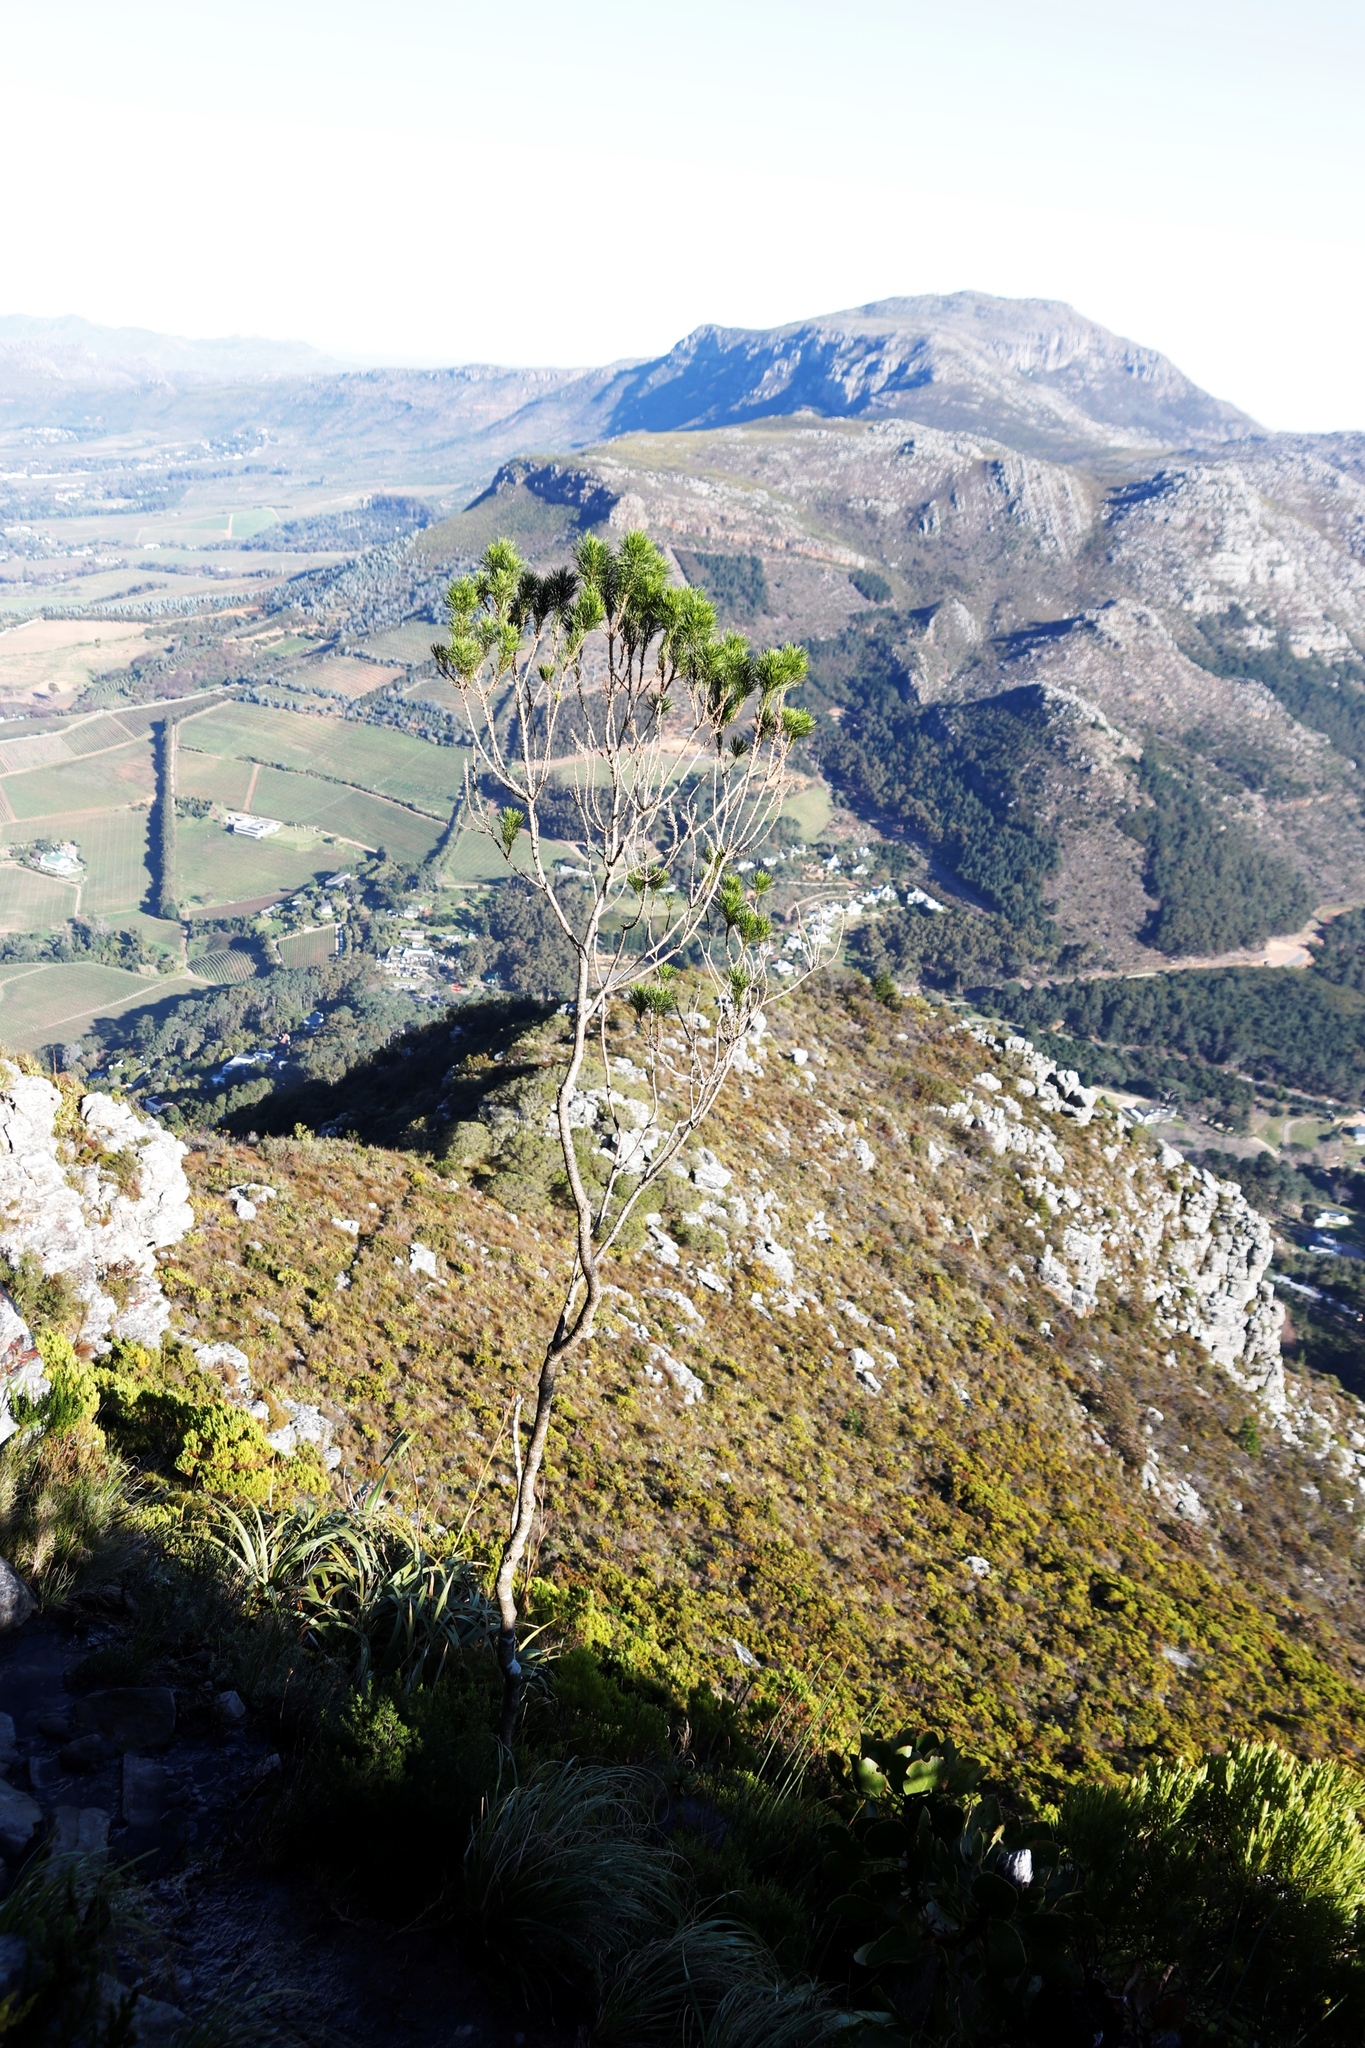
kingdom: Plantae
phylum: Tracheophyta
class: Magnoliopsida
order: Fabales
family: Fabaceae
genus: Psoralea
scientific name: Psoralea pinnata
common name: African scurfpea
